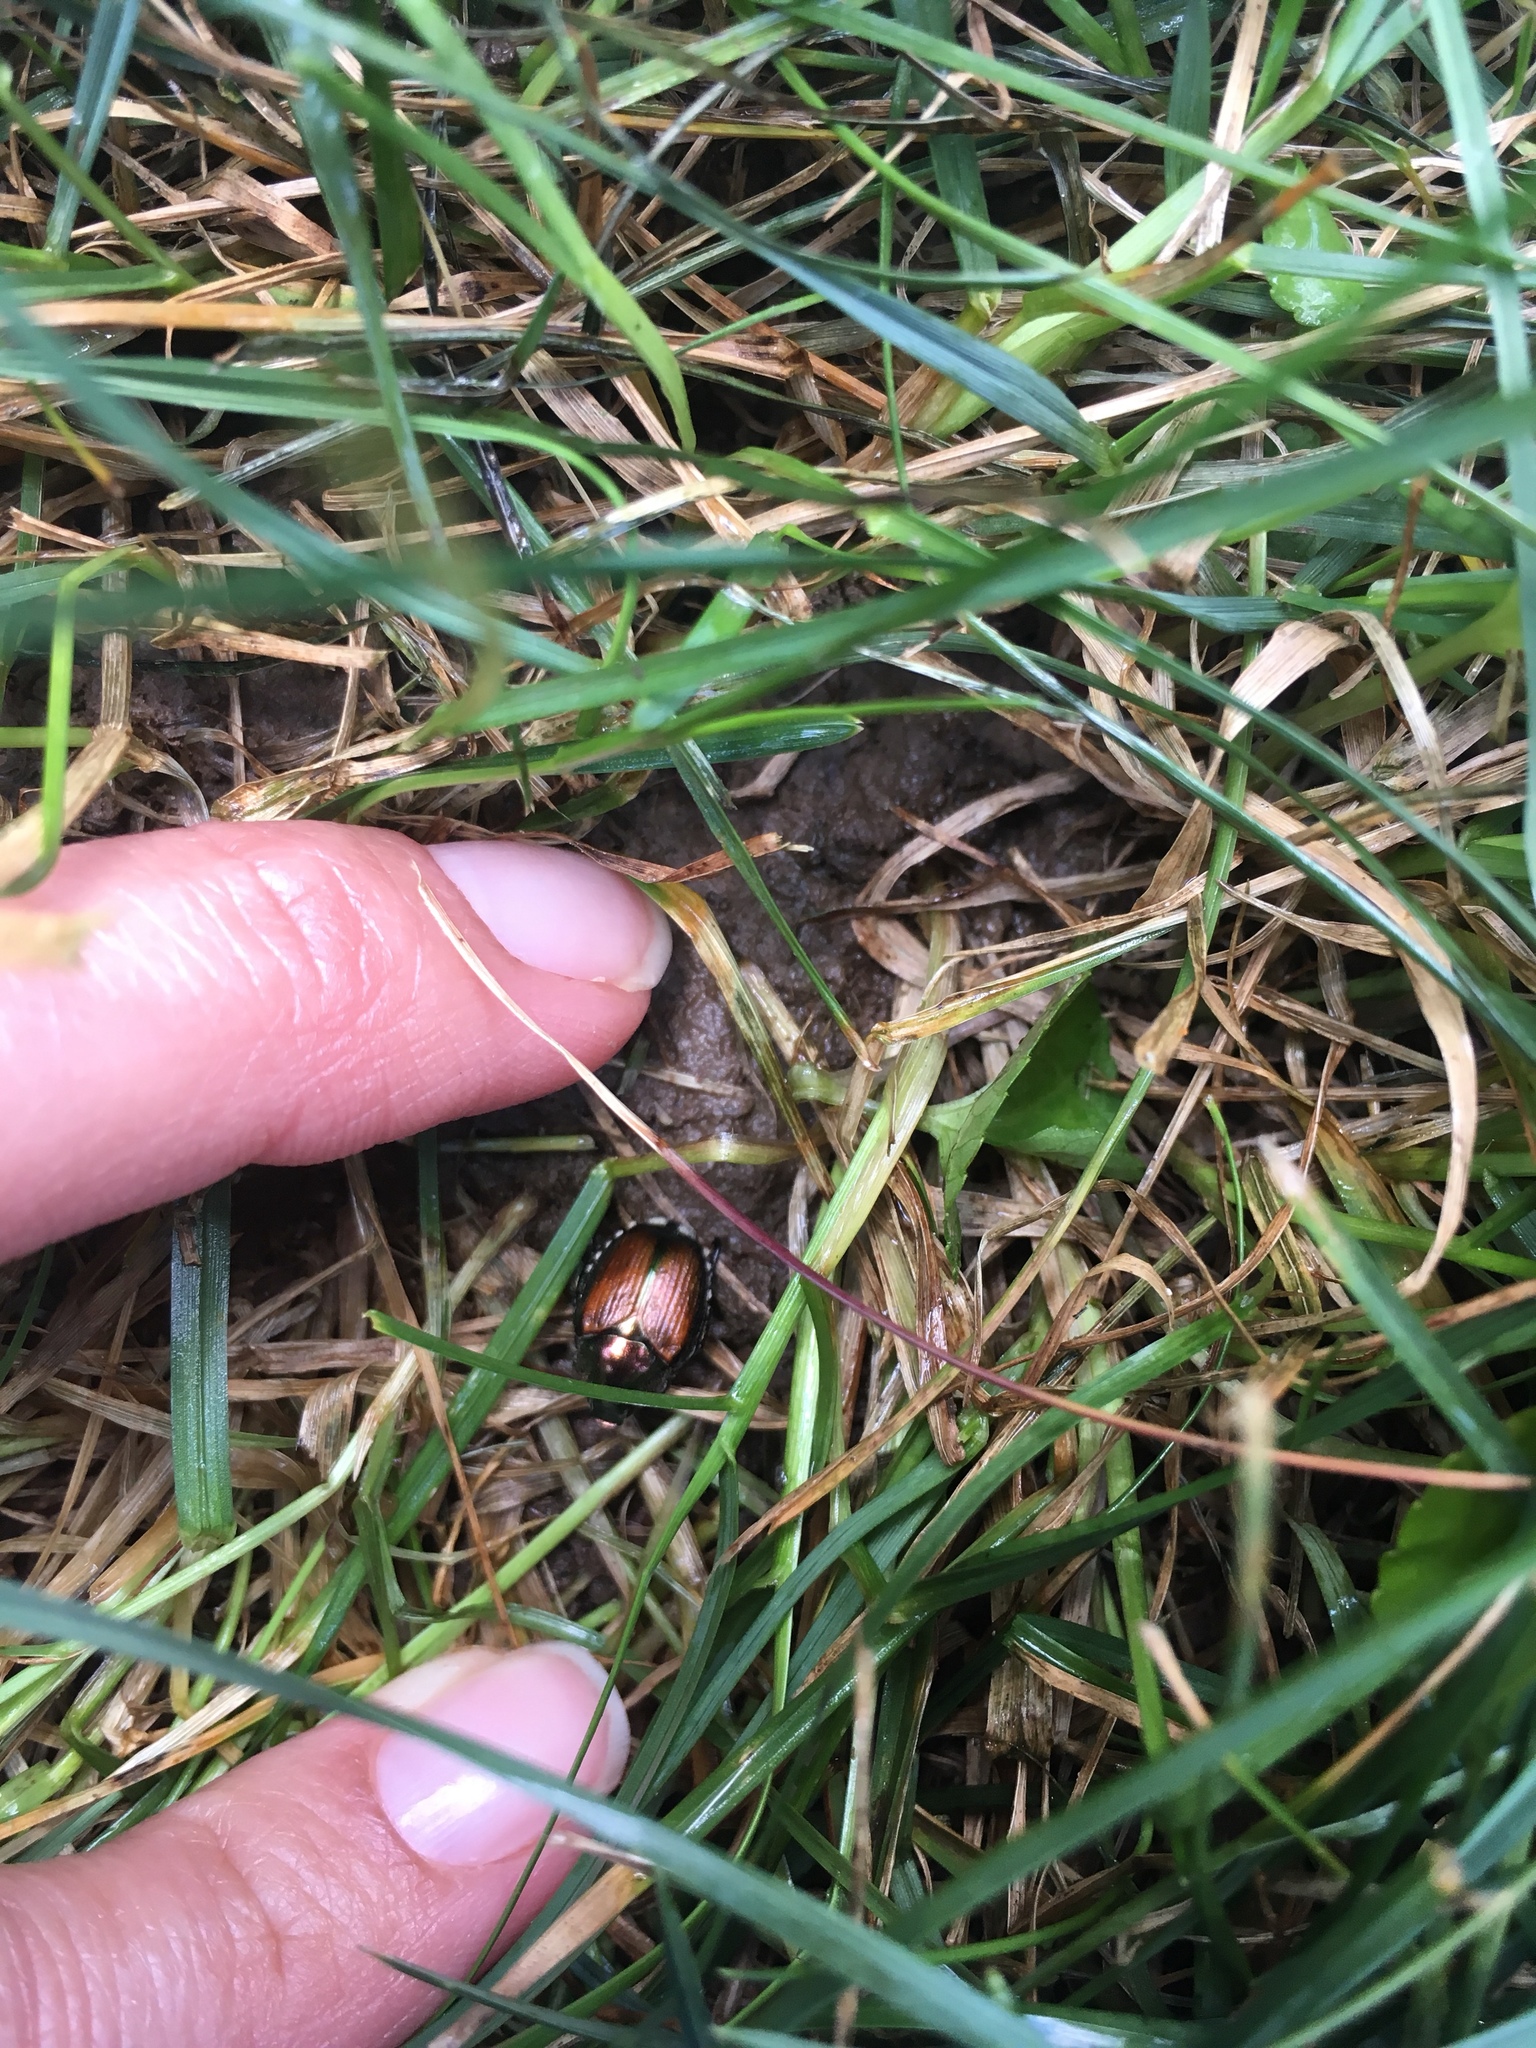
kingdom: Animalia
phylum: Arthropoda
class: Insecta
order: Coleoptera
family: Scarabaeidae
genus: Popillia
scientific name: Popillia japonica
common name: Japanese beetle
